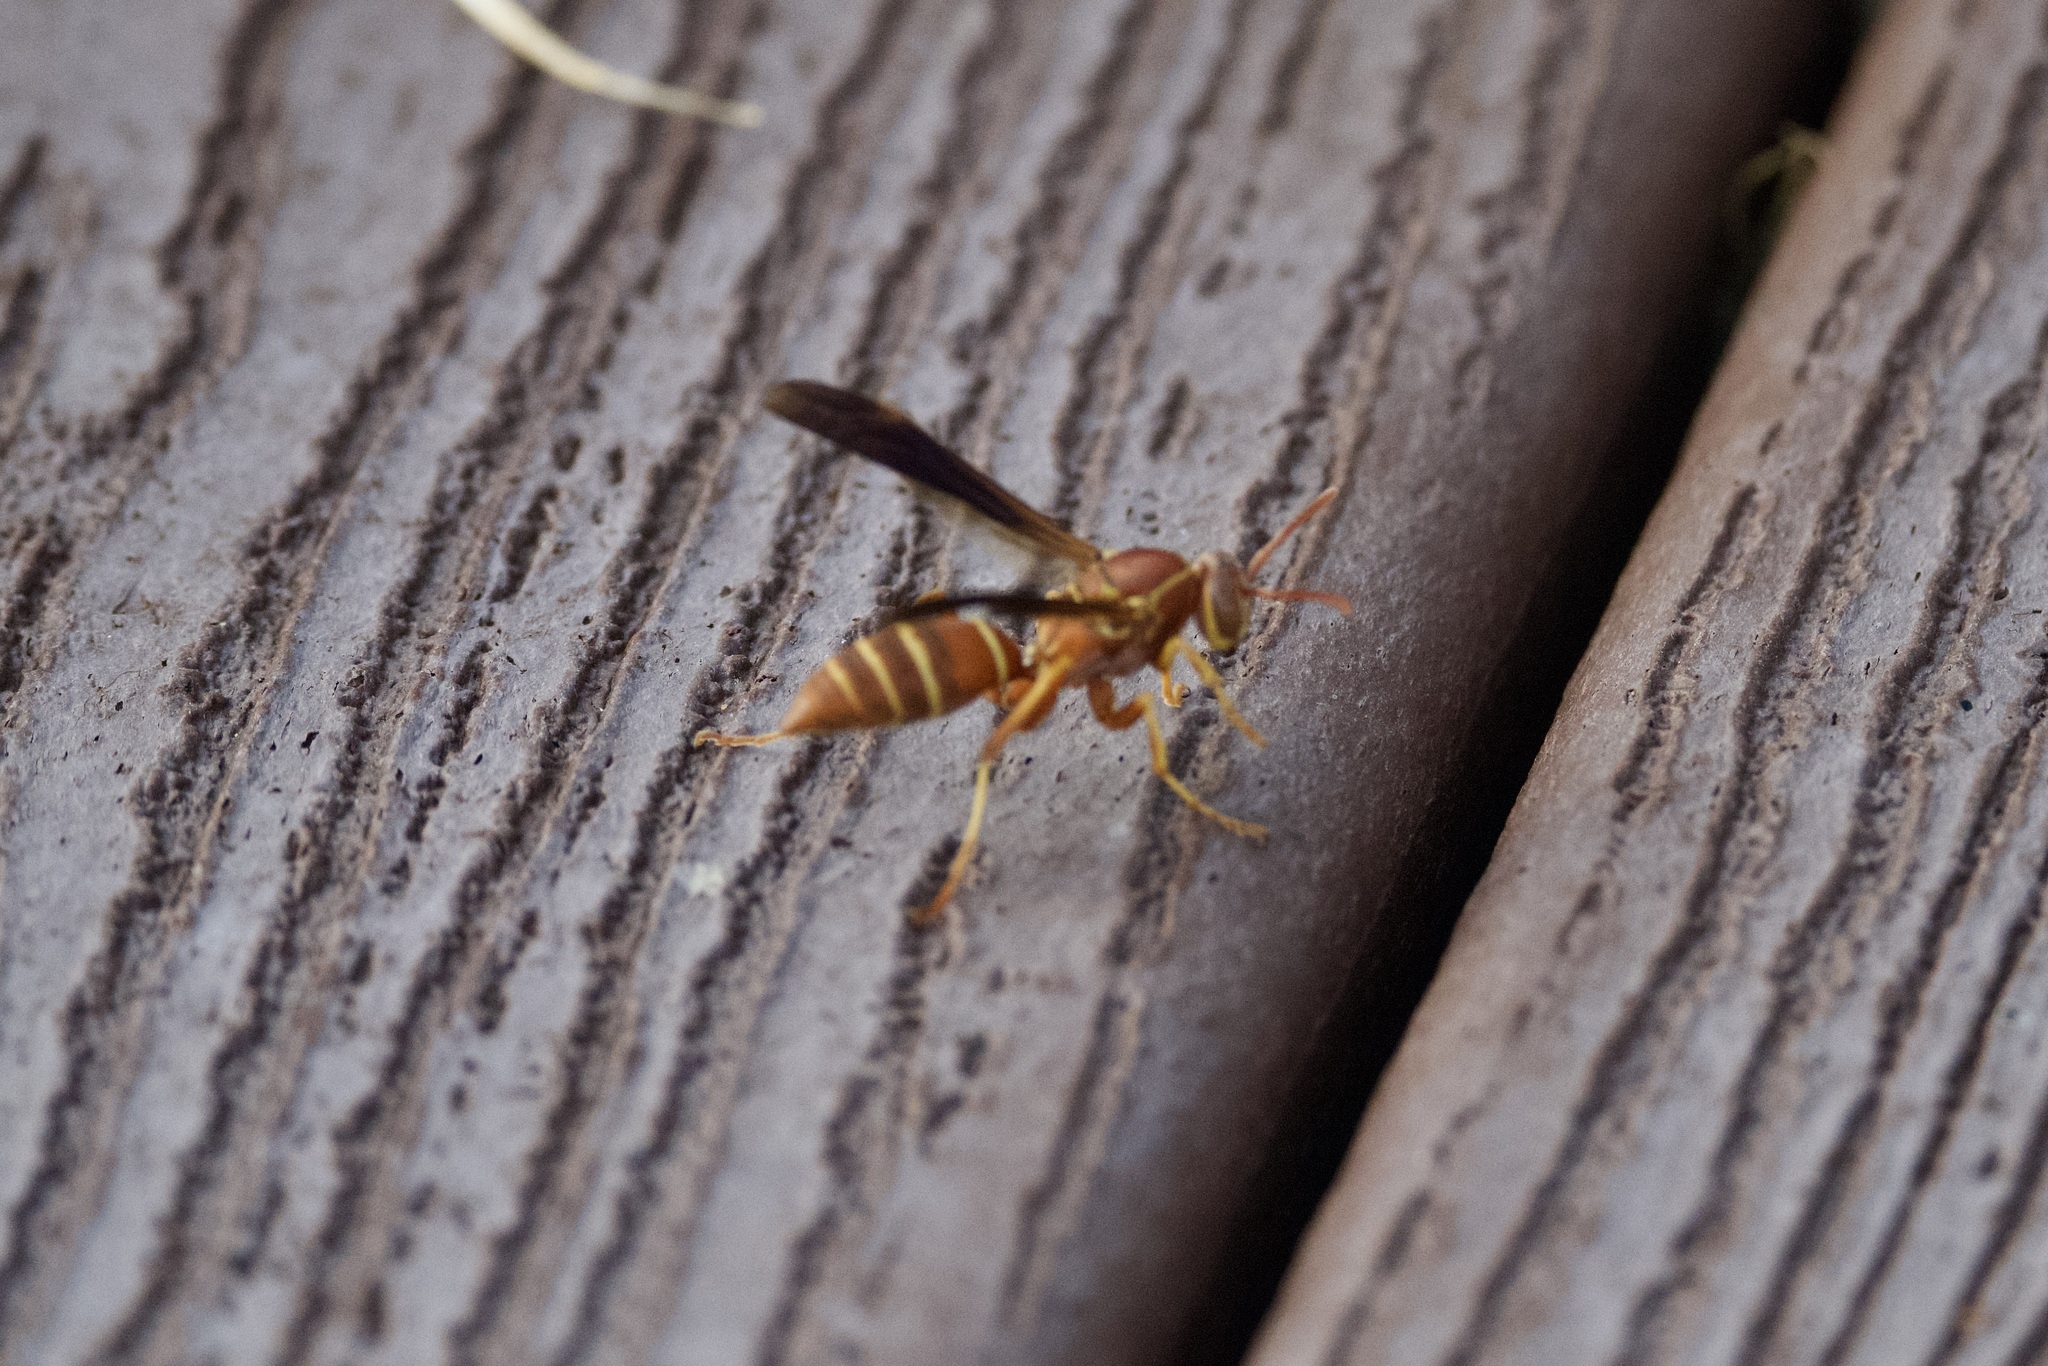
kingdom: Animalia
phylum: Arthropoda
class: Insecta
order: Hymenoptera
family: Eumenidae
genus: Polistes
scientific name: Polistes bellicosus
